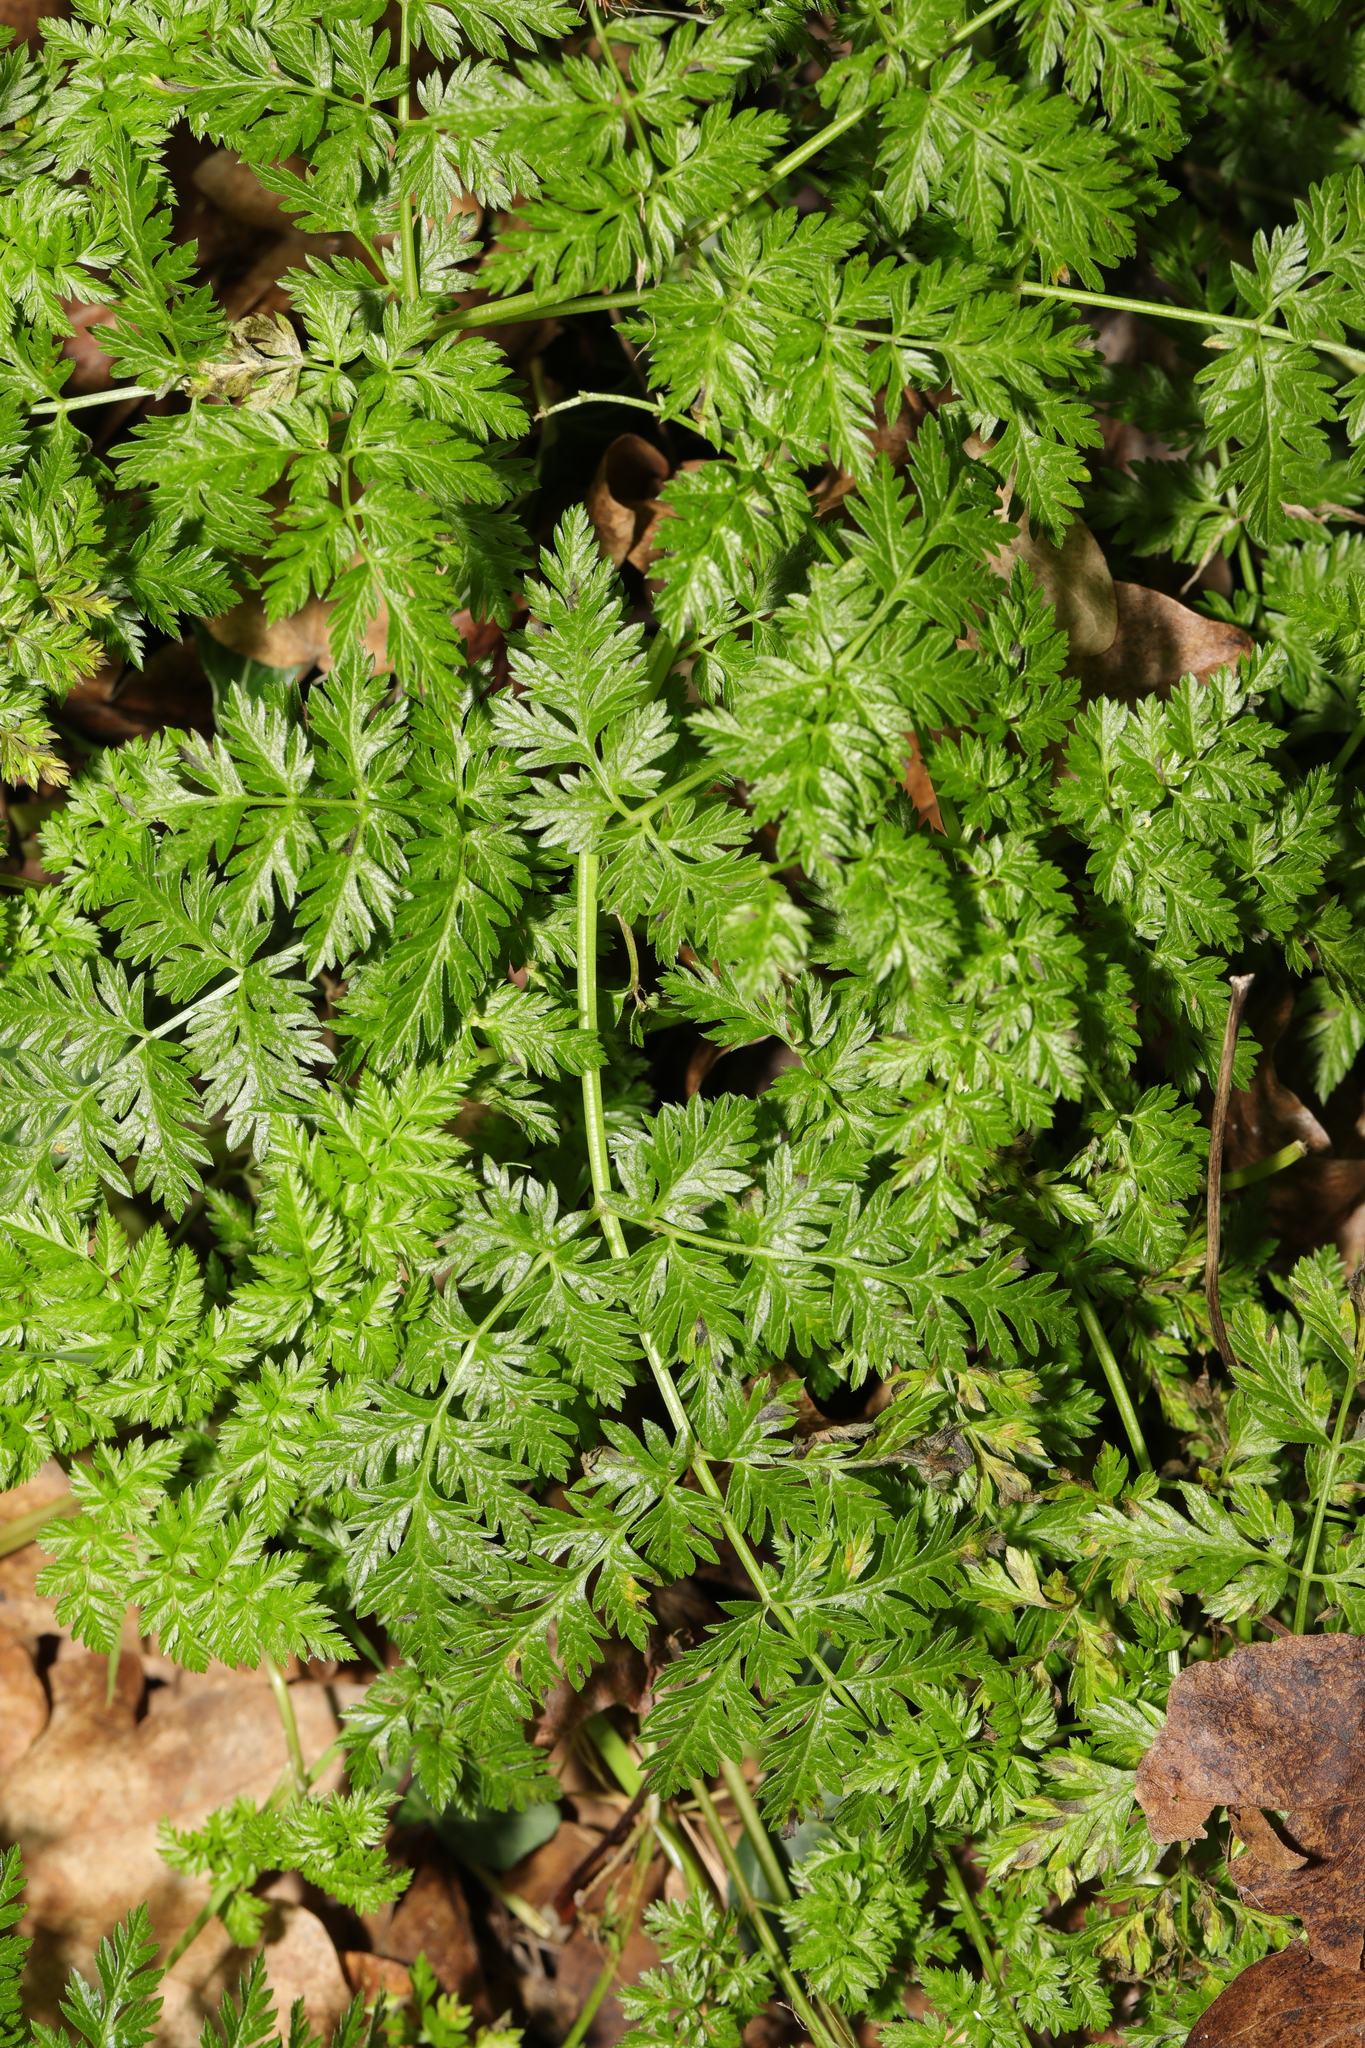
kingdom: Plantae
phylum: Tracheophyta
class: Magnoliopsida
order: Apiales
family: Apiaceae
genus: Anthriscus
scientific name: Anthriscus sylvestris
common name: Cow parsley
